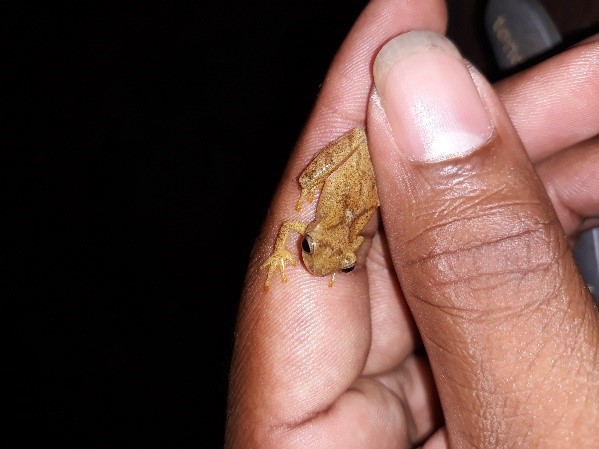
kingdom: Animalia
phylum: Chordata
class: Amphibia
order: Anura
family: Hylidae
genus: Dendropsophus
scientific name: Dendropsophus phlebodes
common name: San carlos treefrog
